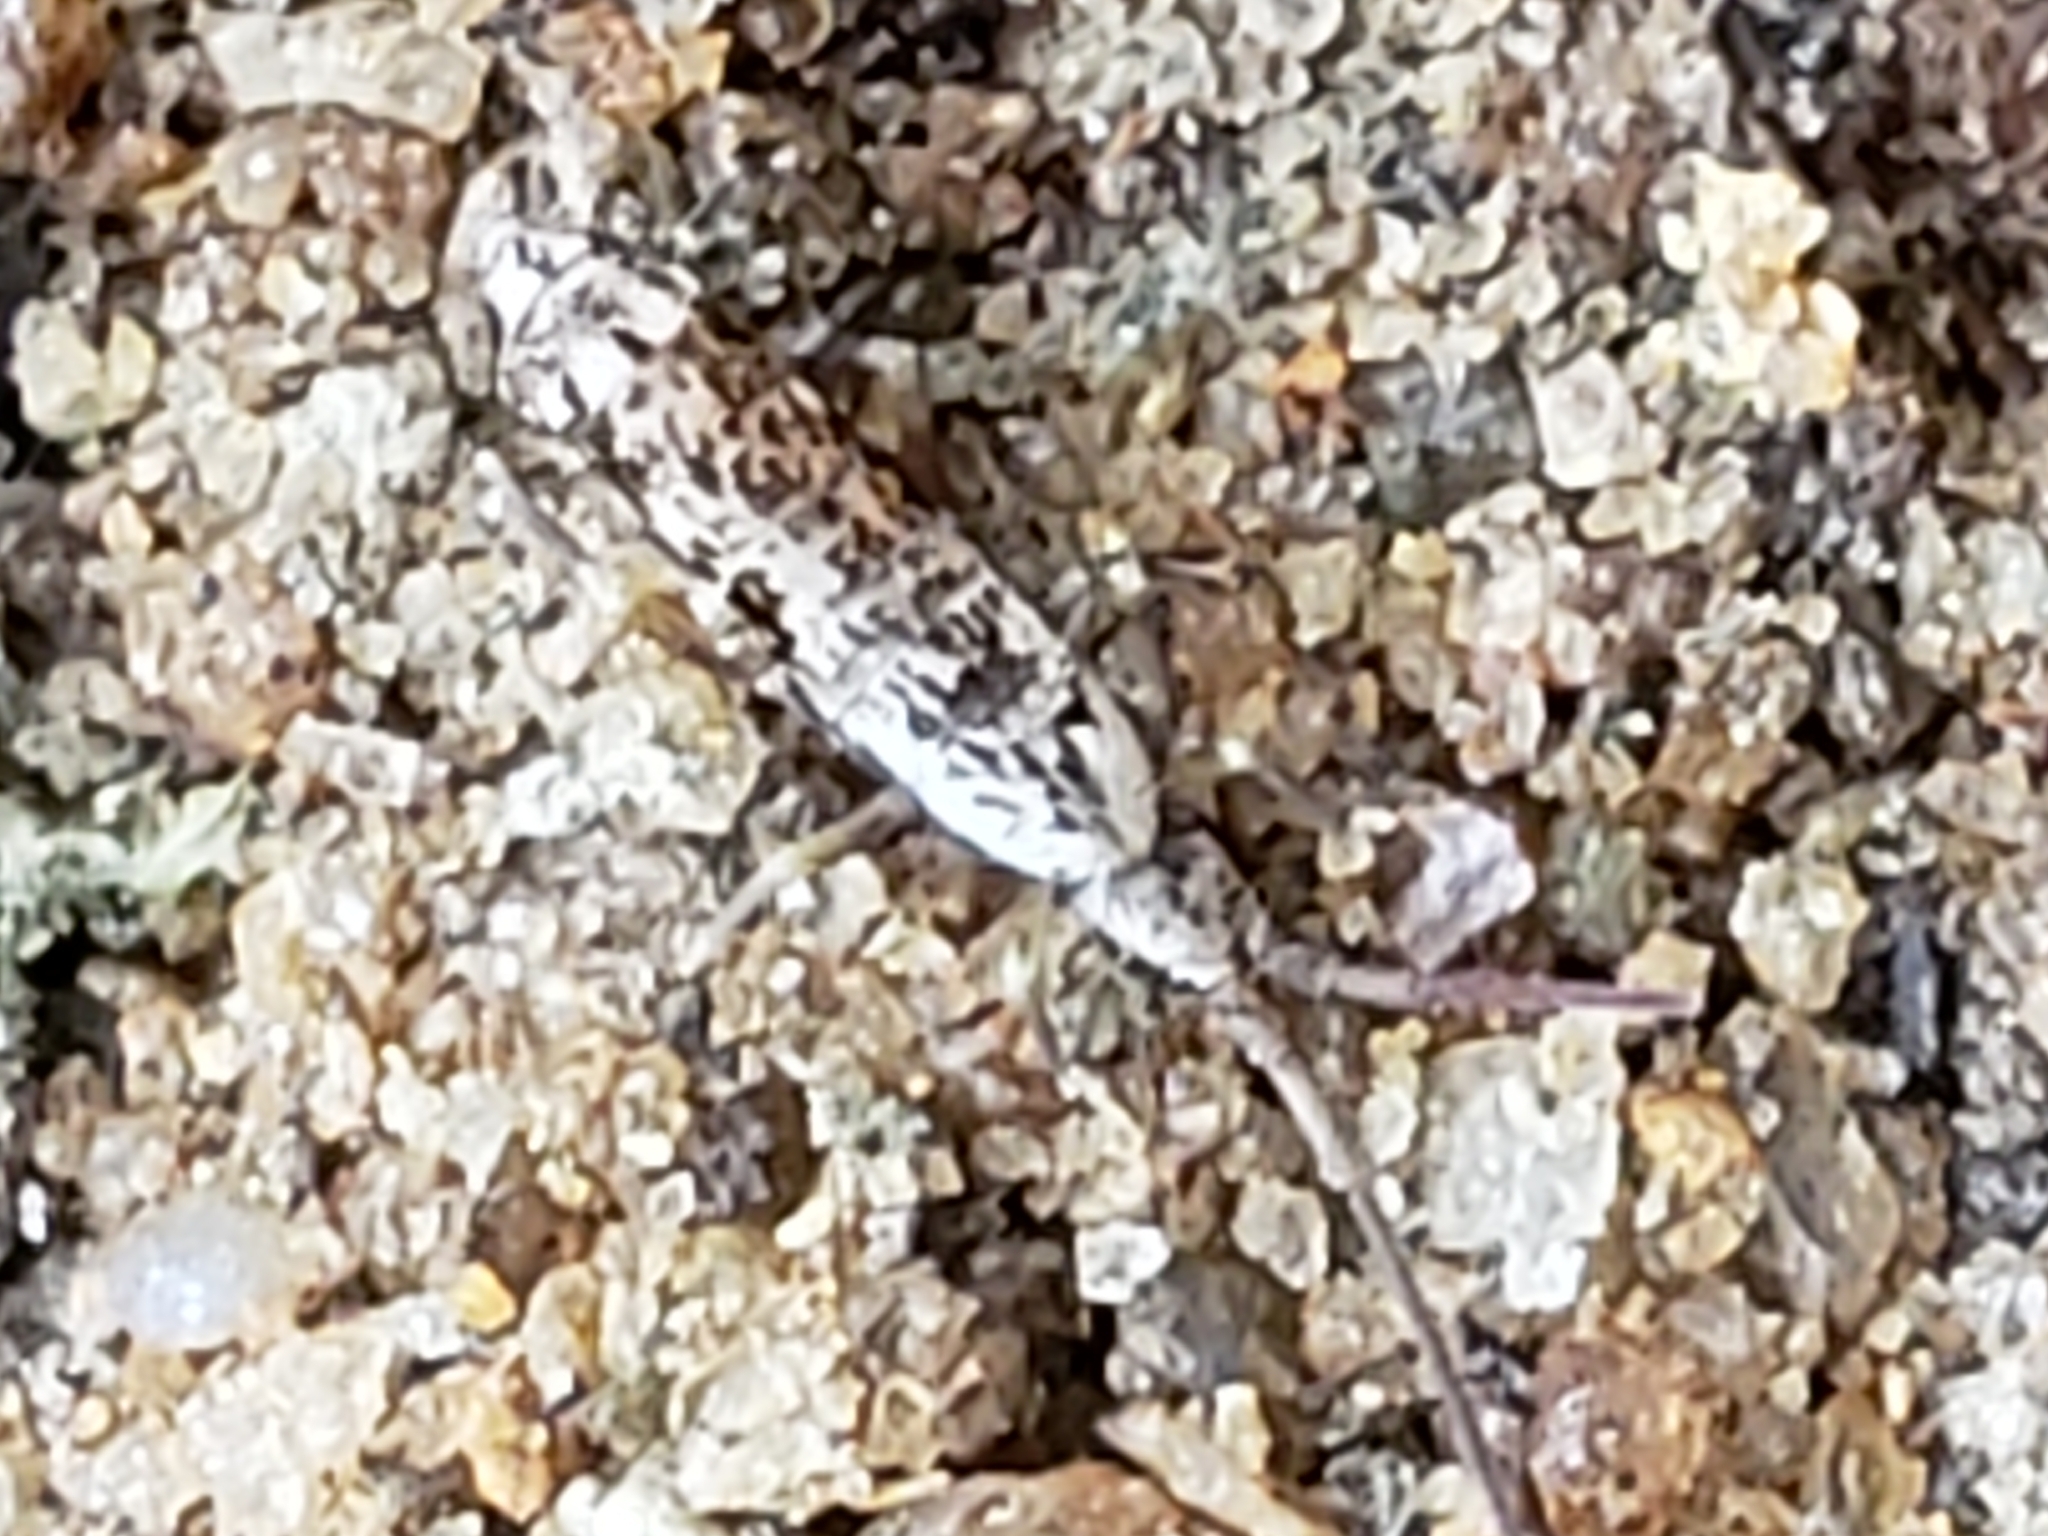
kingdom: Animalia
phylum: Arthropoda
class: Collembola
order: Entomobryomorpha
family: Tomoceridae
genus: Pogonognathellus
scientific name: Pogonognathellus elongatus
